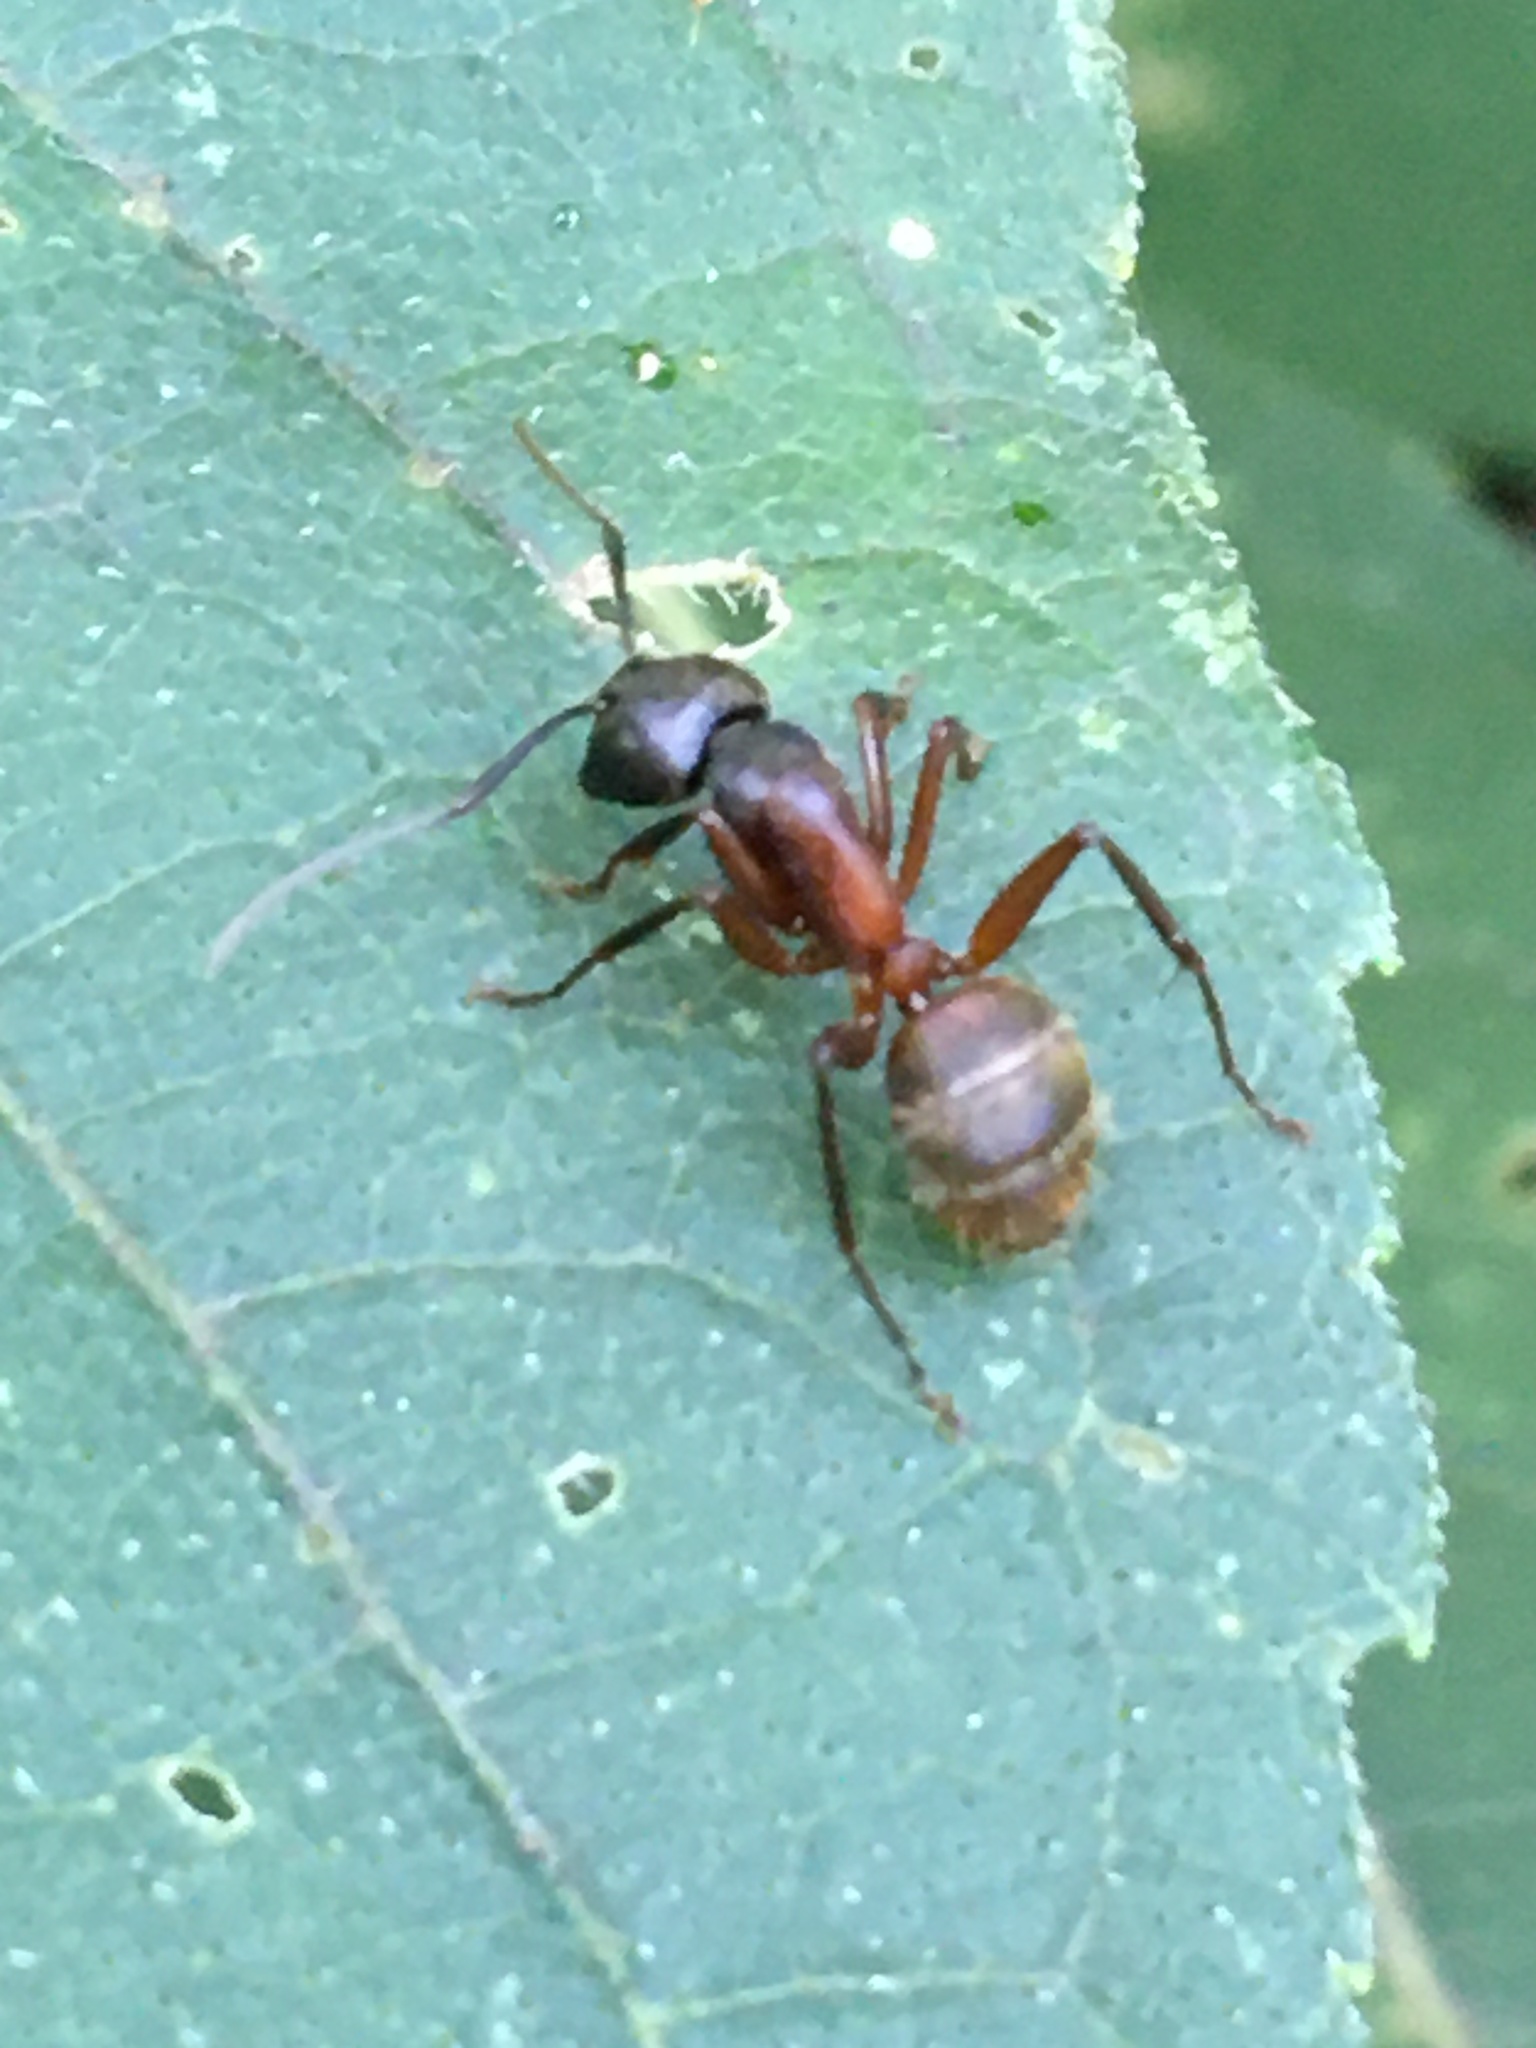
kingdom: Animalia
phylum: Arthropoda
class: Insecta
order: Hymenoptera
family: Formicidae
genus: Camponotus
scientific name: Camponotus chromaiodes
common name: Red carpenter ant
